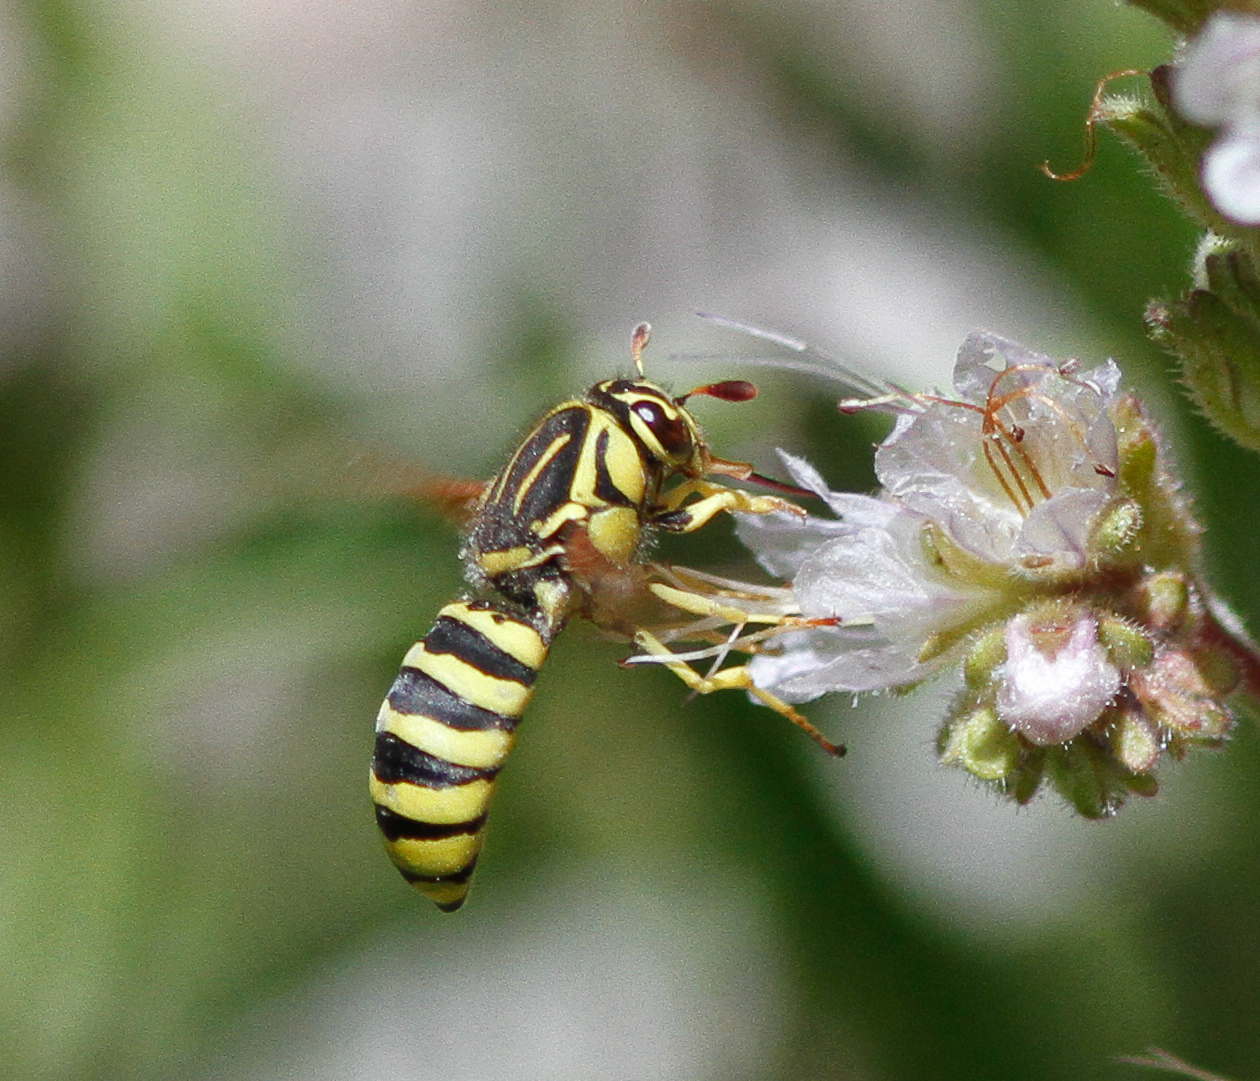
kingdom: Animalia
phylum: Arthropoda
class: Insecta
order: Hymenoptera
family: Masaridae
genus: Pseudomasaris
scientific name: Pseudomasaris coquilletti
